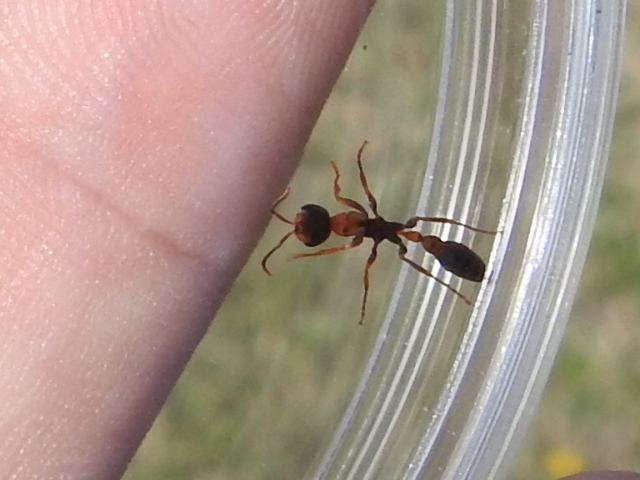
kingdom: Animalia
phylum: Arthropoda
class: Insecta
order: Hymenoptera
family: Formicidae
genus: Pseudomyrmex
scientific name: Pseudomyrmex gracilis
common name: Graceful twig ant
